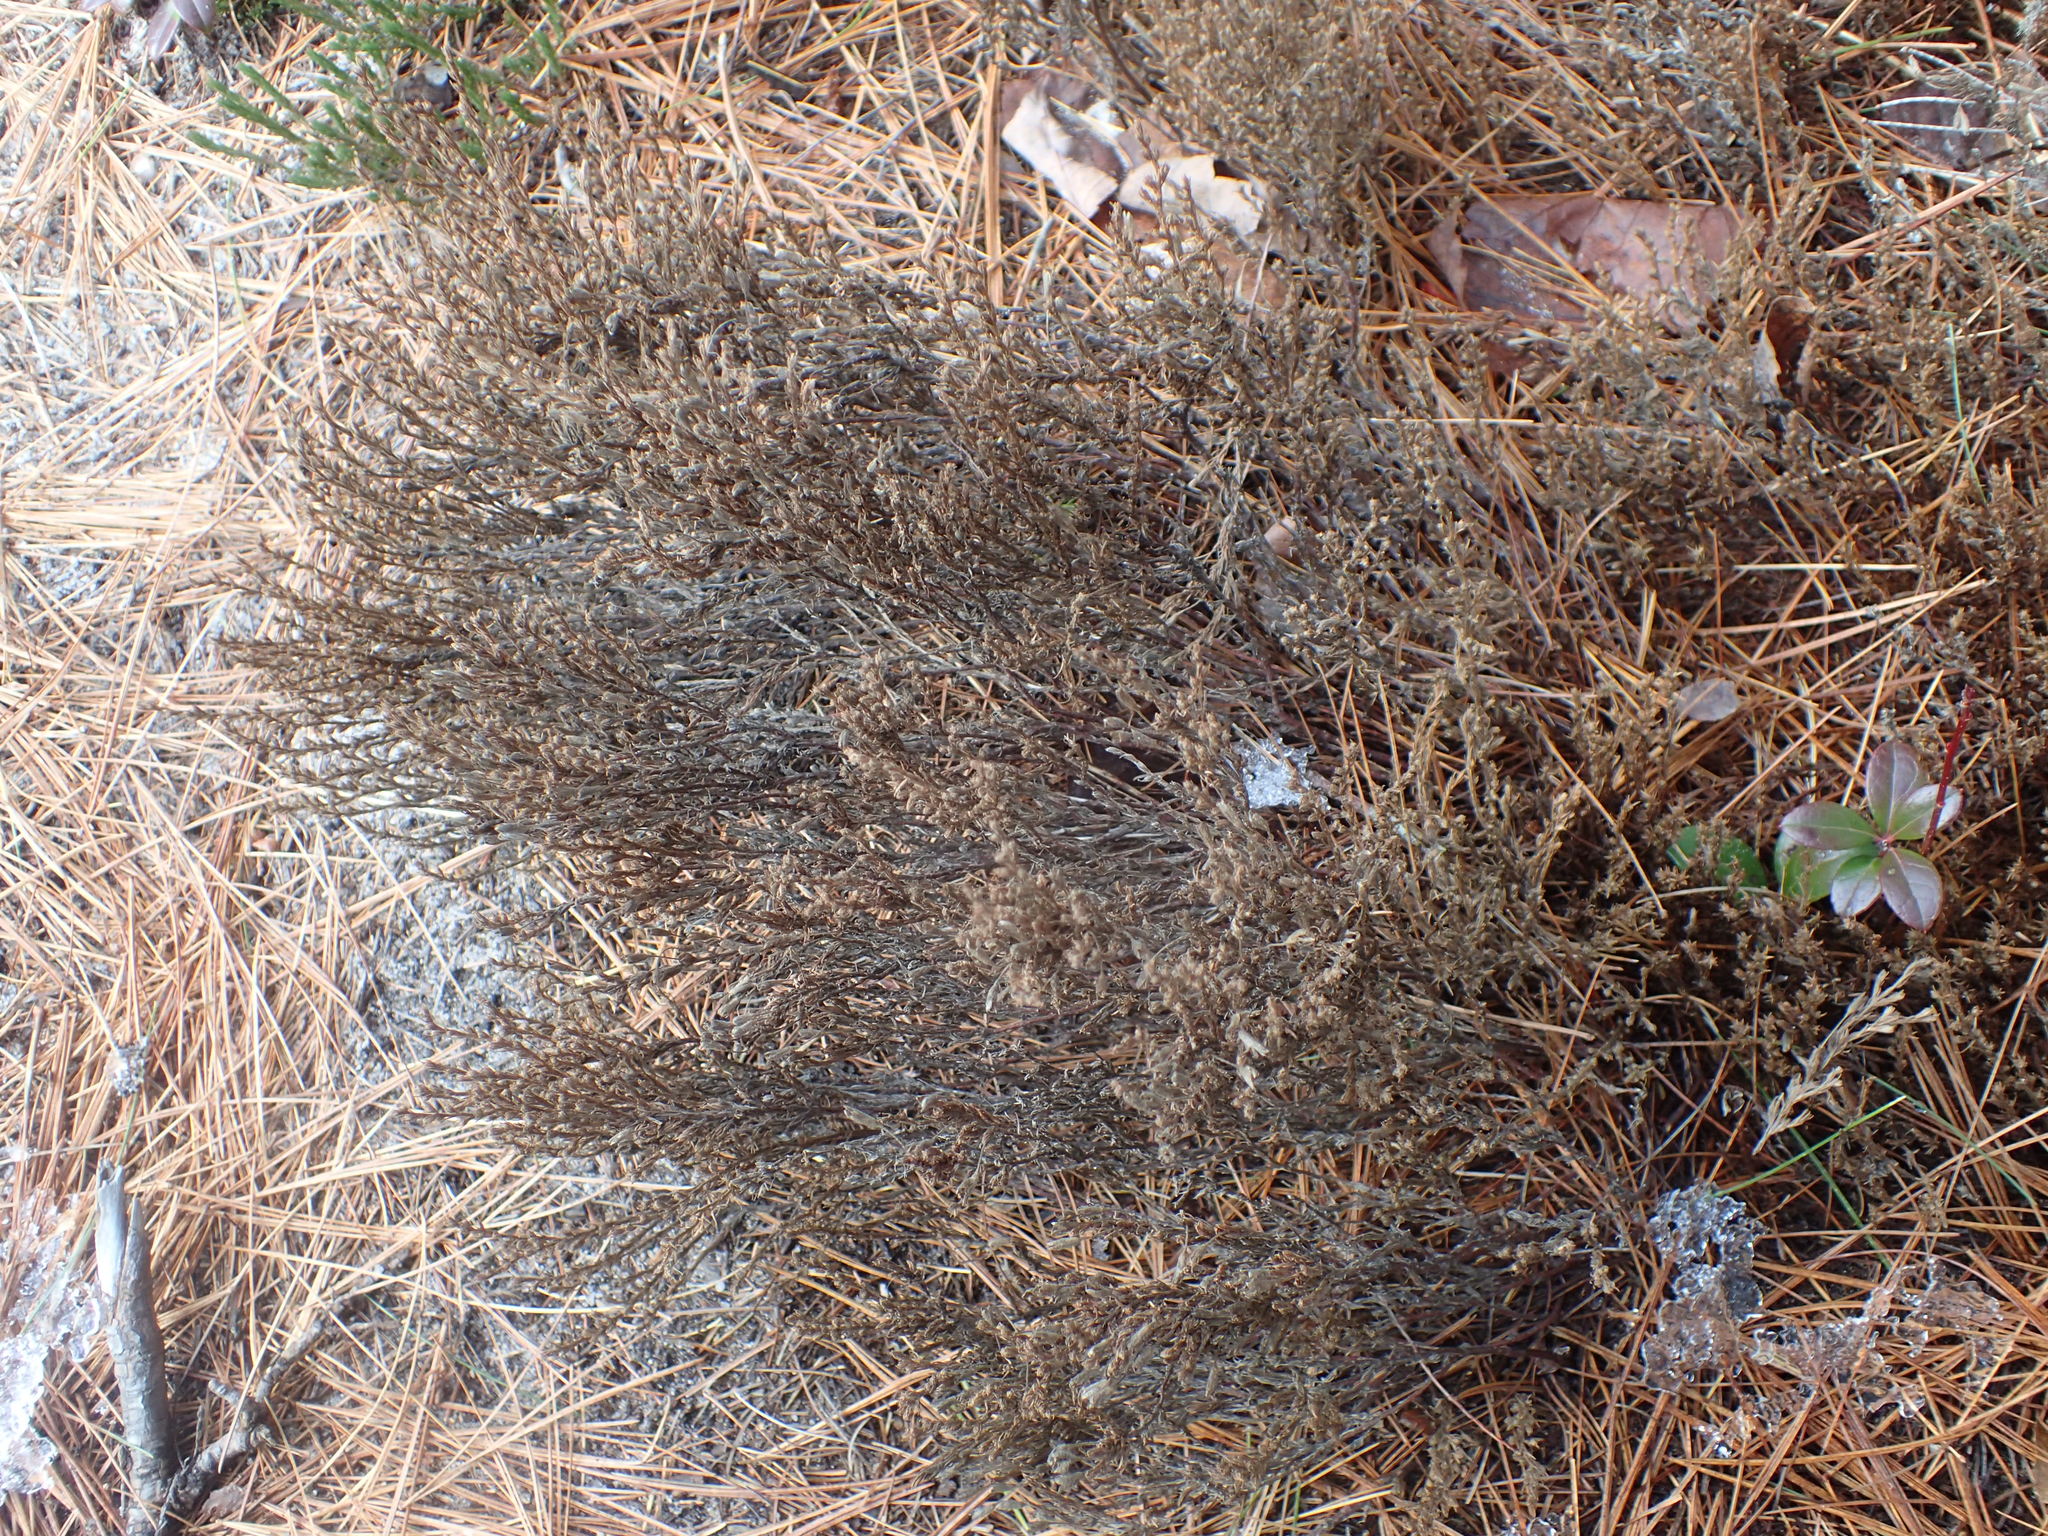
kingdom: Plantae
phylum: Tracheophyta
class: Magnoliopsida
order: Malvales
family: Cistaceae
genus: Hudsonia
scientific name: Hudsonia ericoides
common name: Golden-heather
